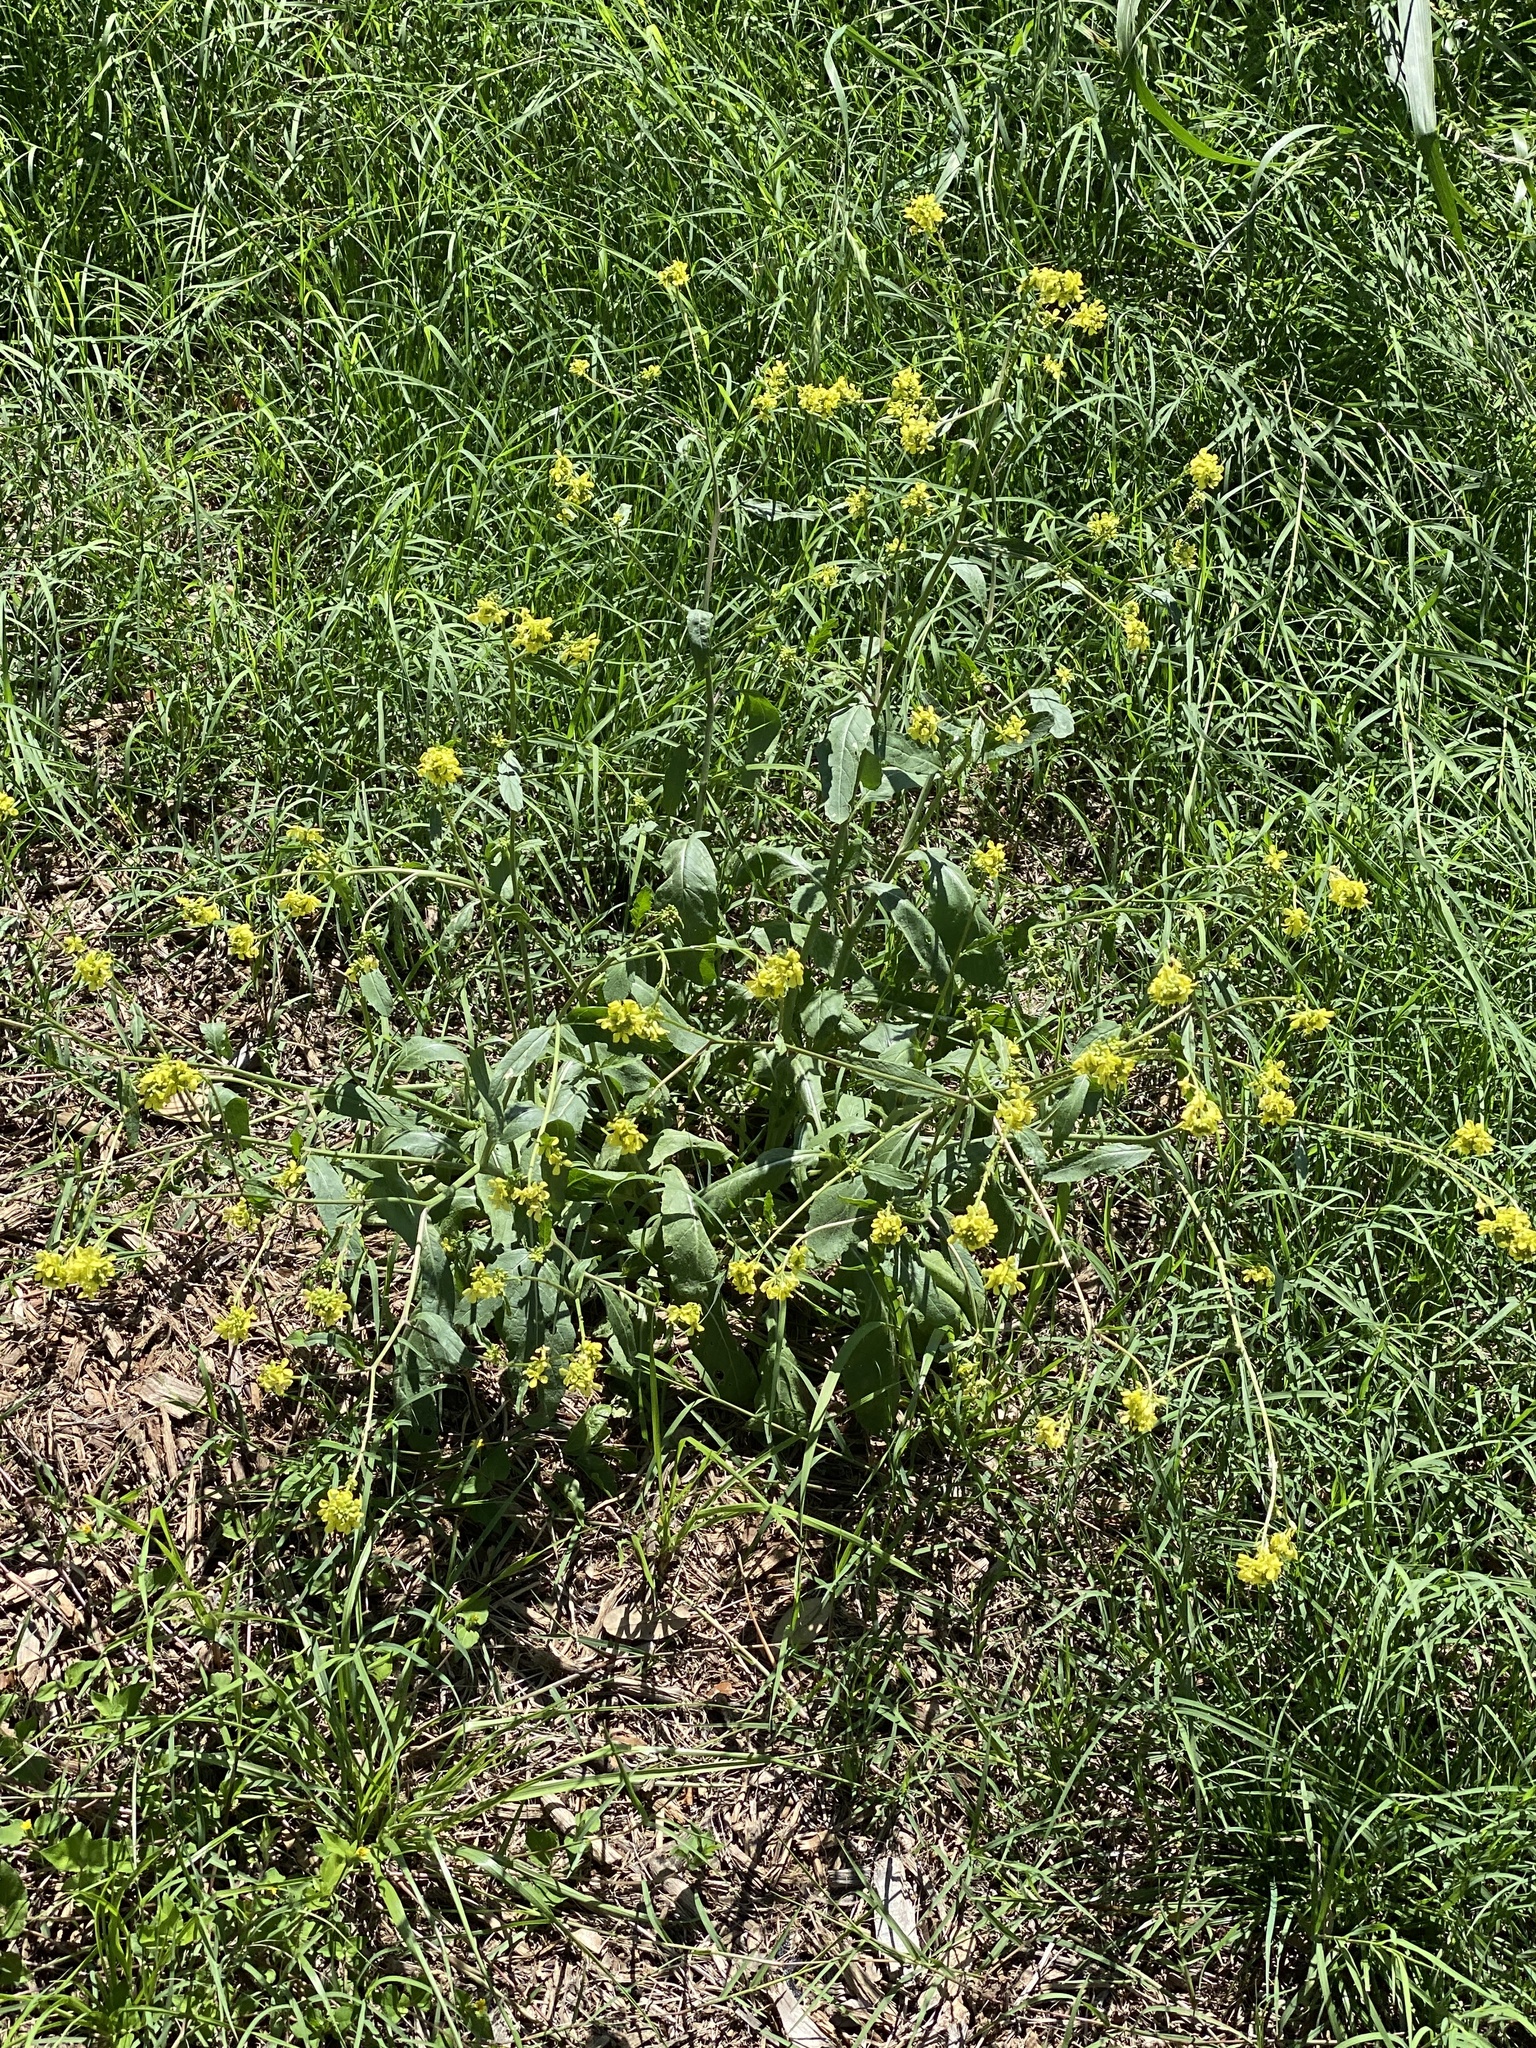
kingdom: Plantae
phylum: Tracheophyta
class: Magnoliopsida
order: Brassicales
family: Brassicaceae
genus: Rapistrum
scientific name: Rapistrum rugosum
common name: Annual bastardcabbage
